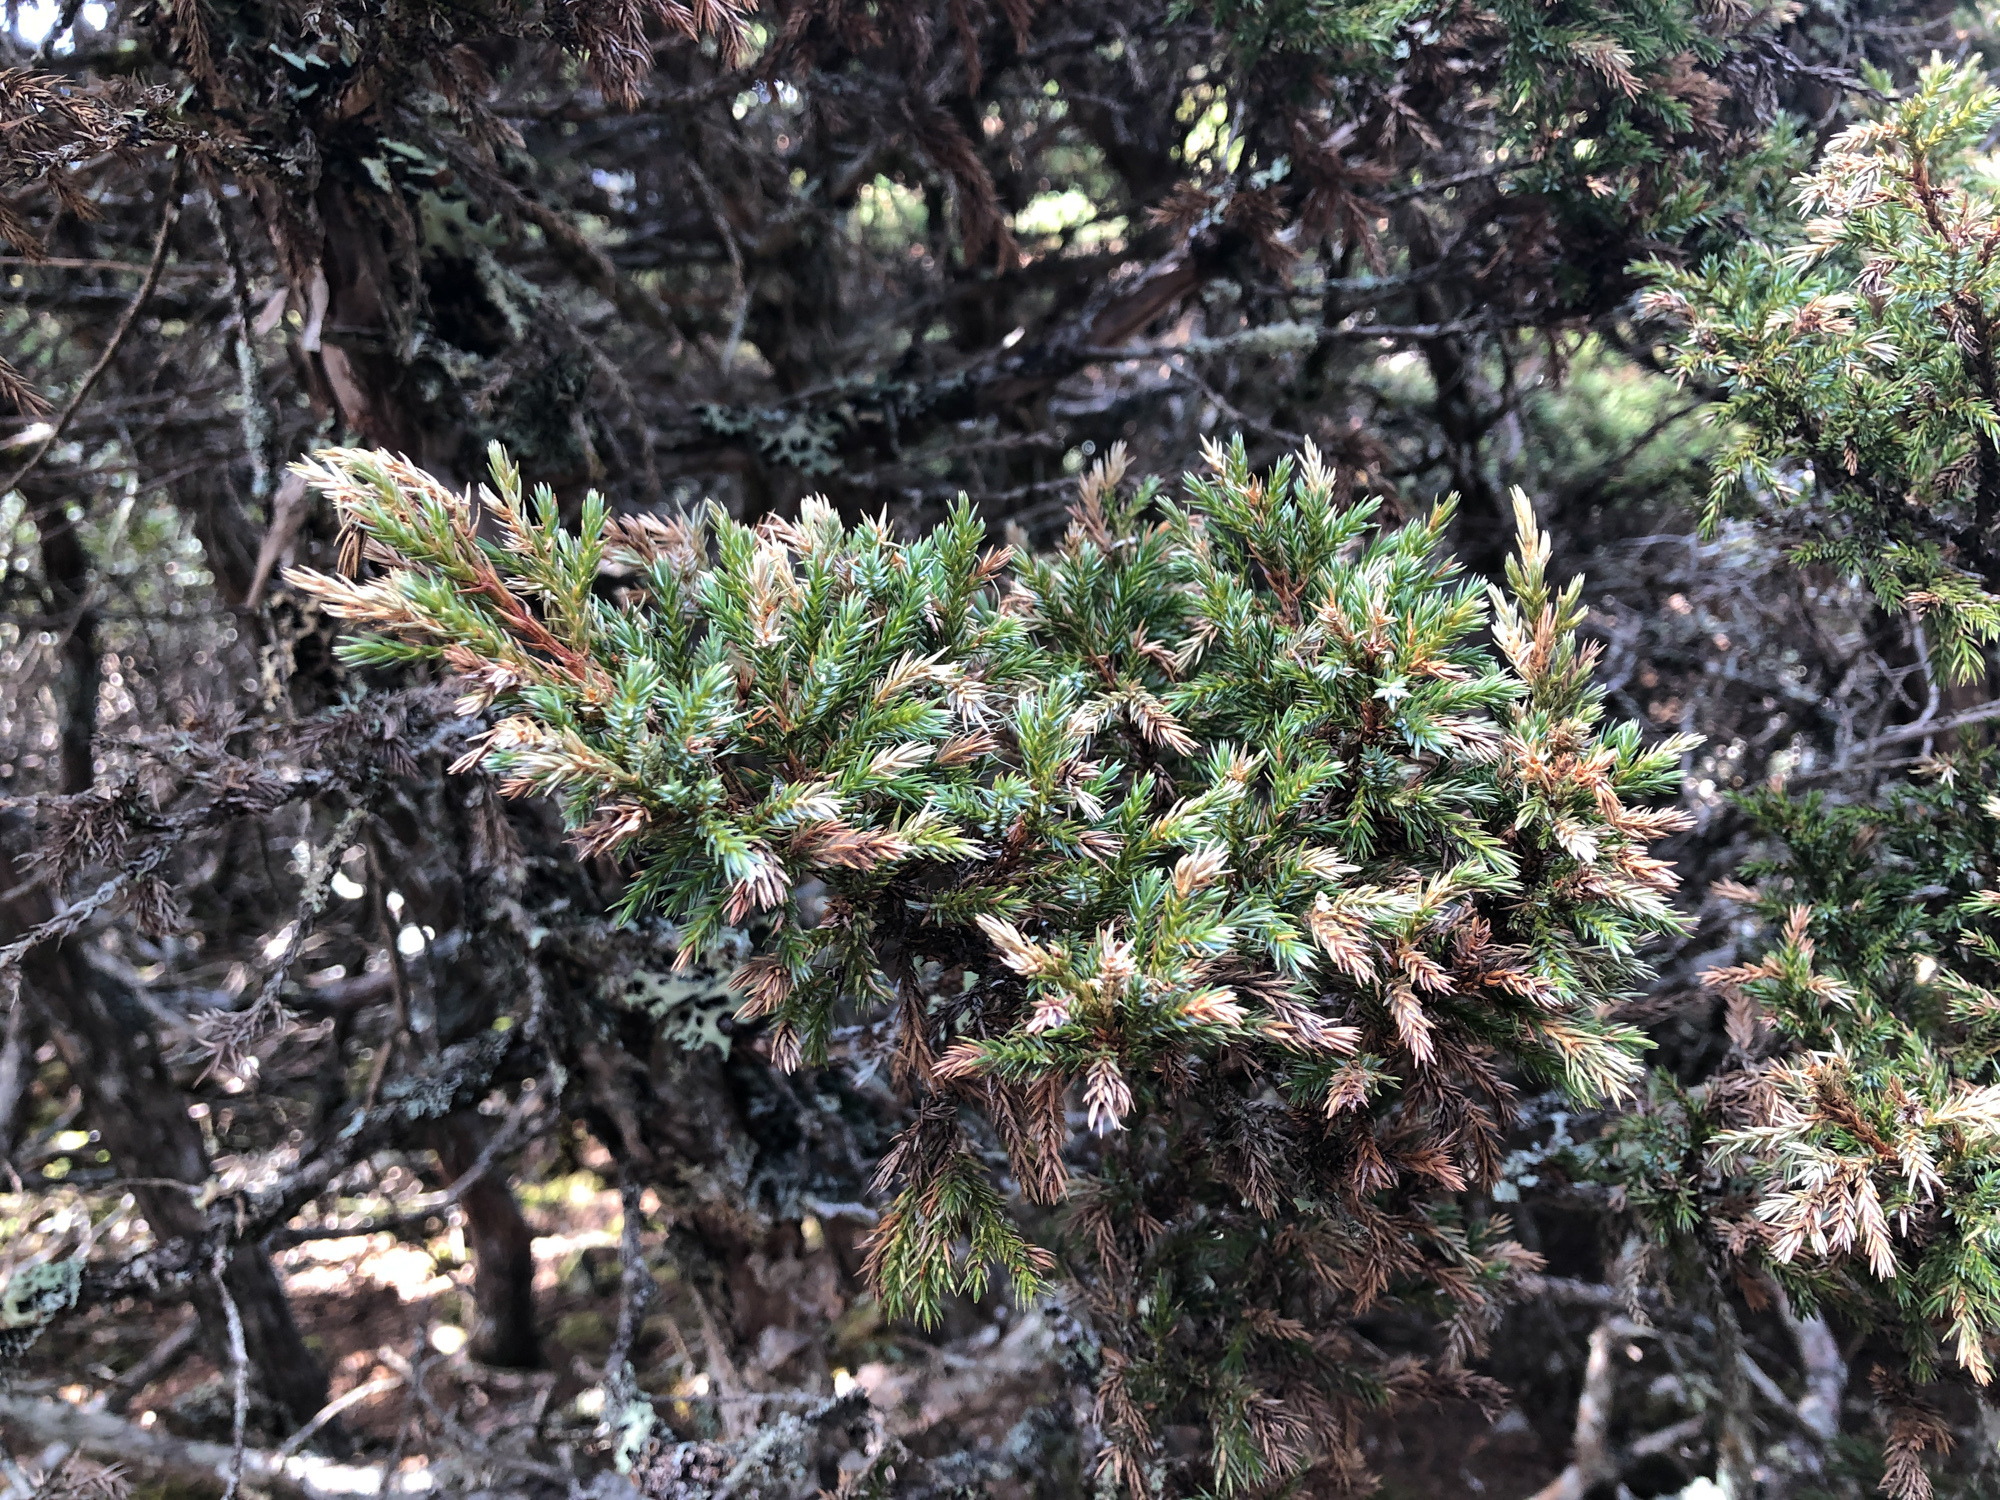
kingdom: Plantae
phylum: Tracheophyta
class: Pinopsida
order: Pinales
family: Cupressaceae
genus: Juniperus
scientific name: Juniperus squamata
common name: Flaky juniper
